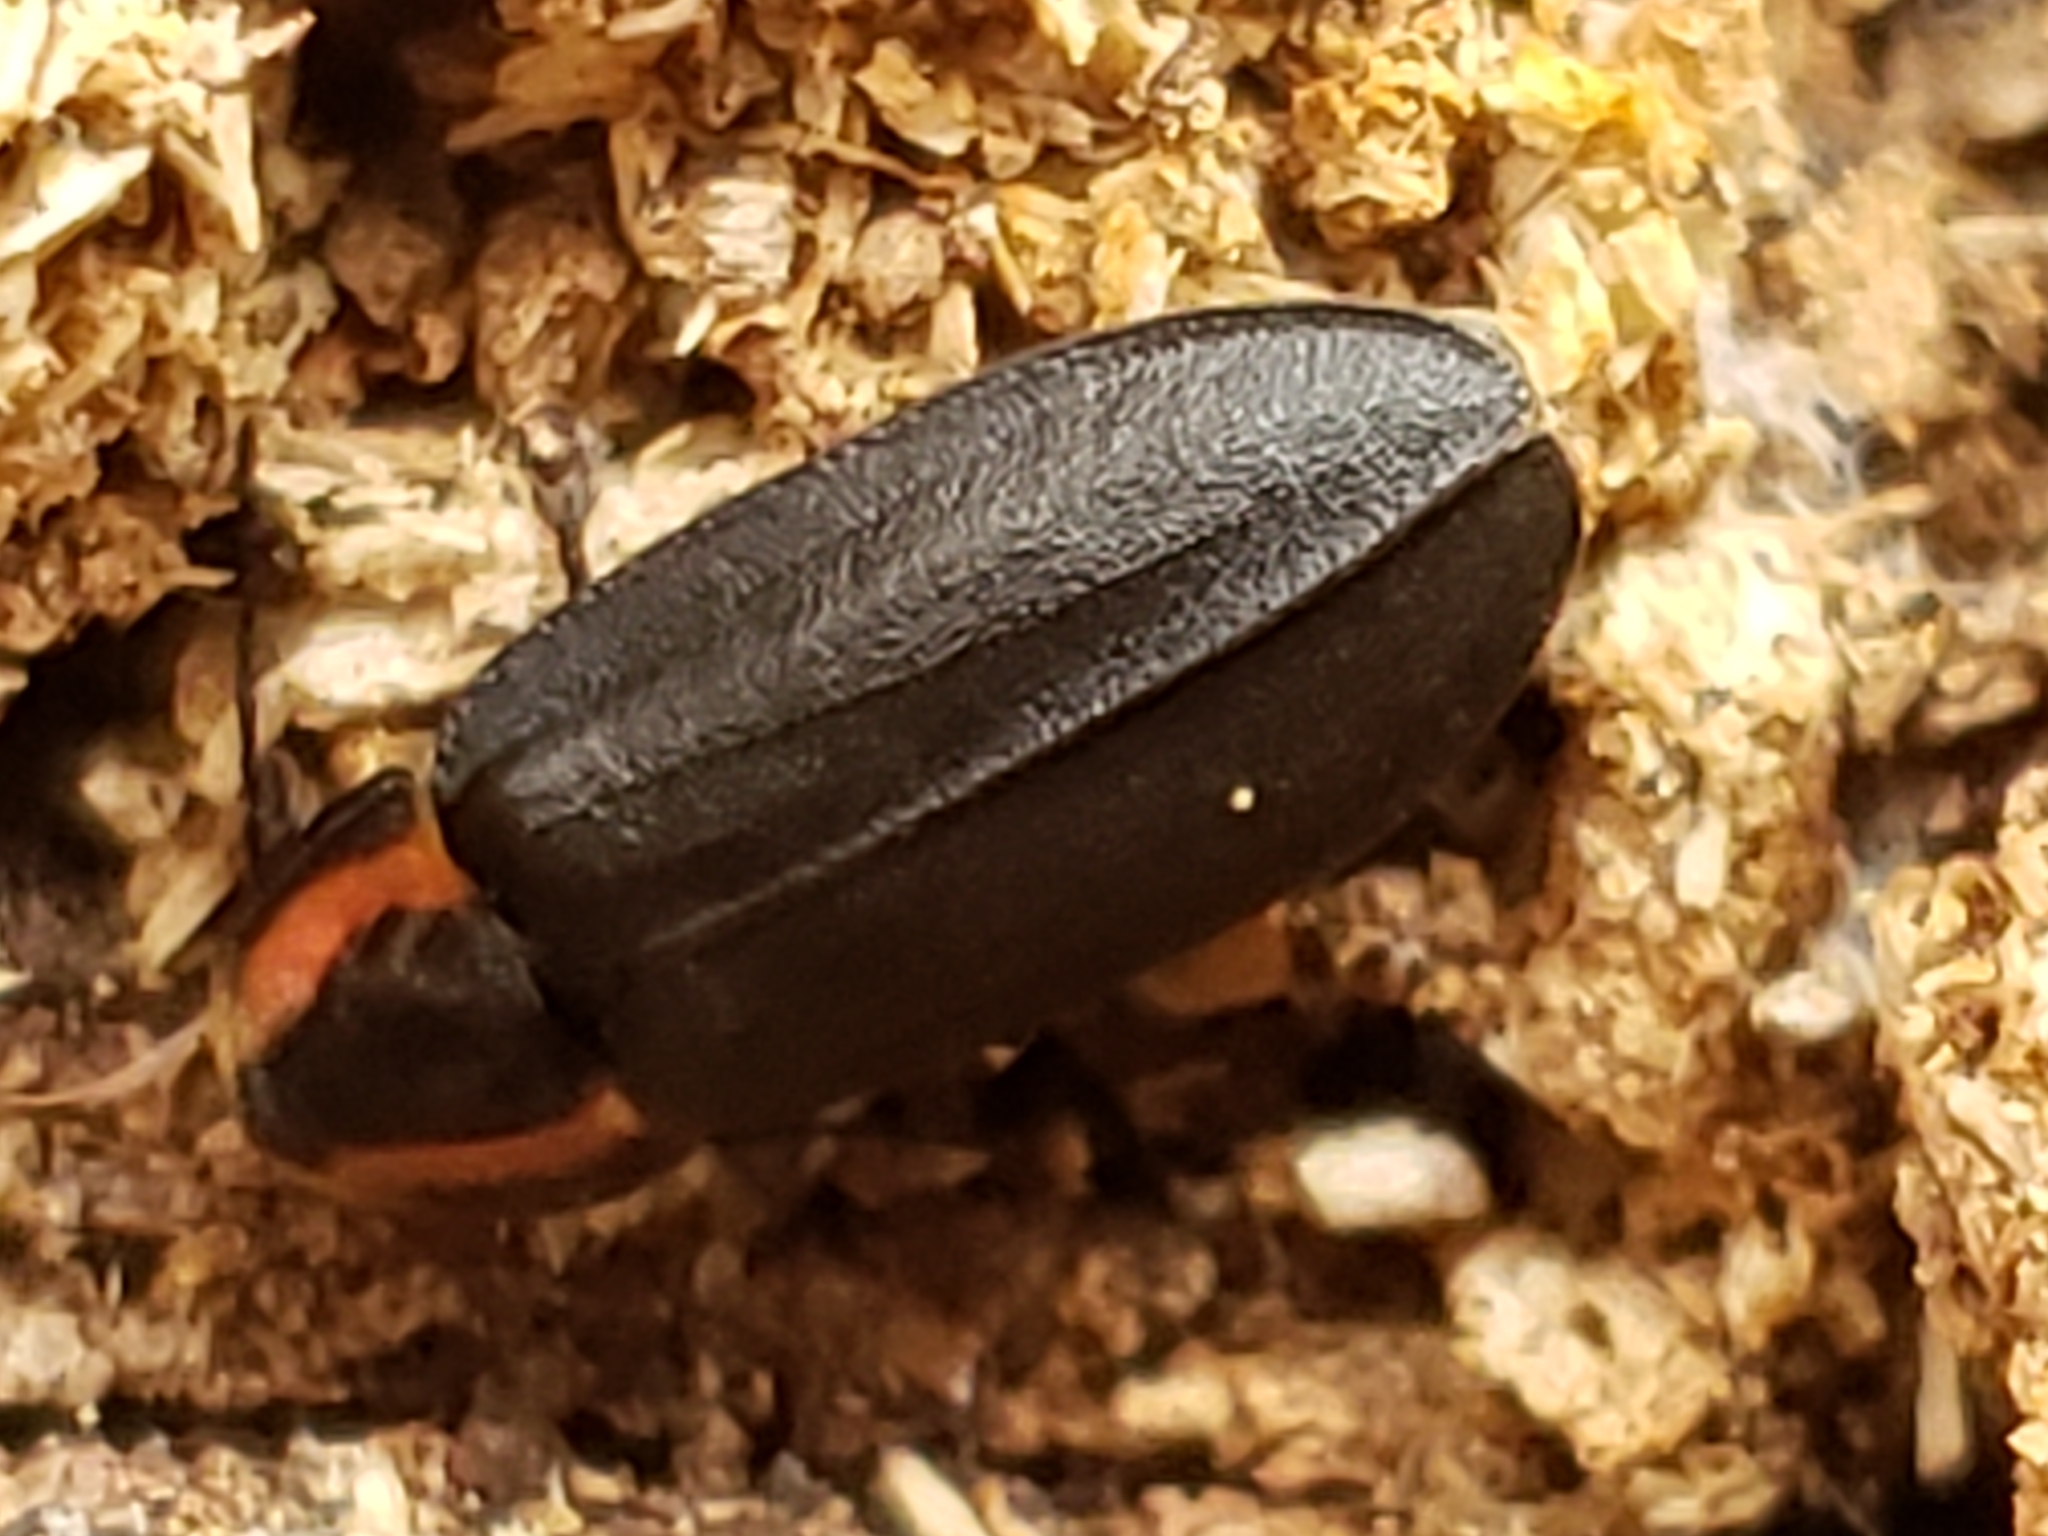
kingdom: Animalia
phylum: Arthropoda
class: Insecta
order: Coleoptera
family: Lampyridae
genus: Photinus
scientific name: Photinus corrusca
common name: Winter firefly
